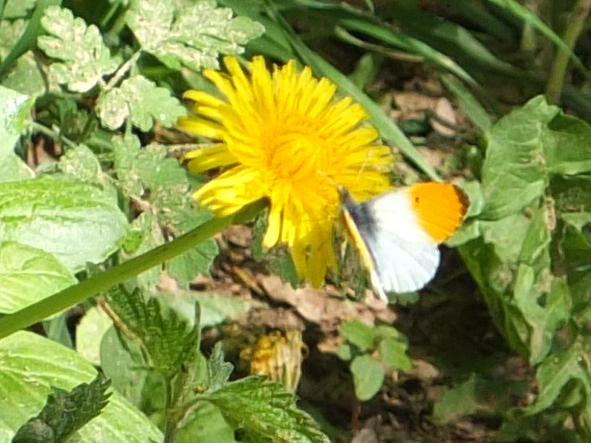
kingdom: Animalia
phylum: Arthropoda
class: Insecta
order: Lepidoptera
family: Pieridae
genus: Anthocharis
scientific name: Anthocharis cardamines
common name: Orange-tip
